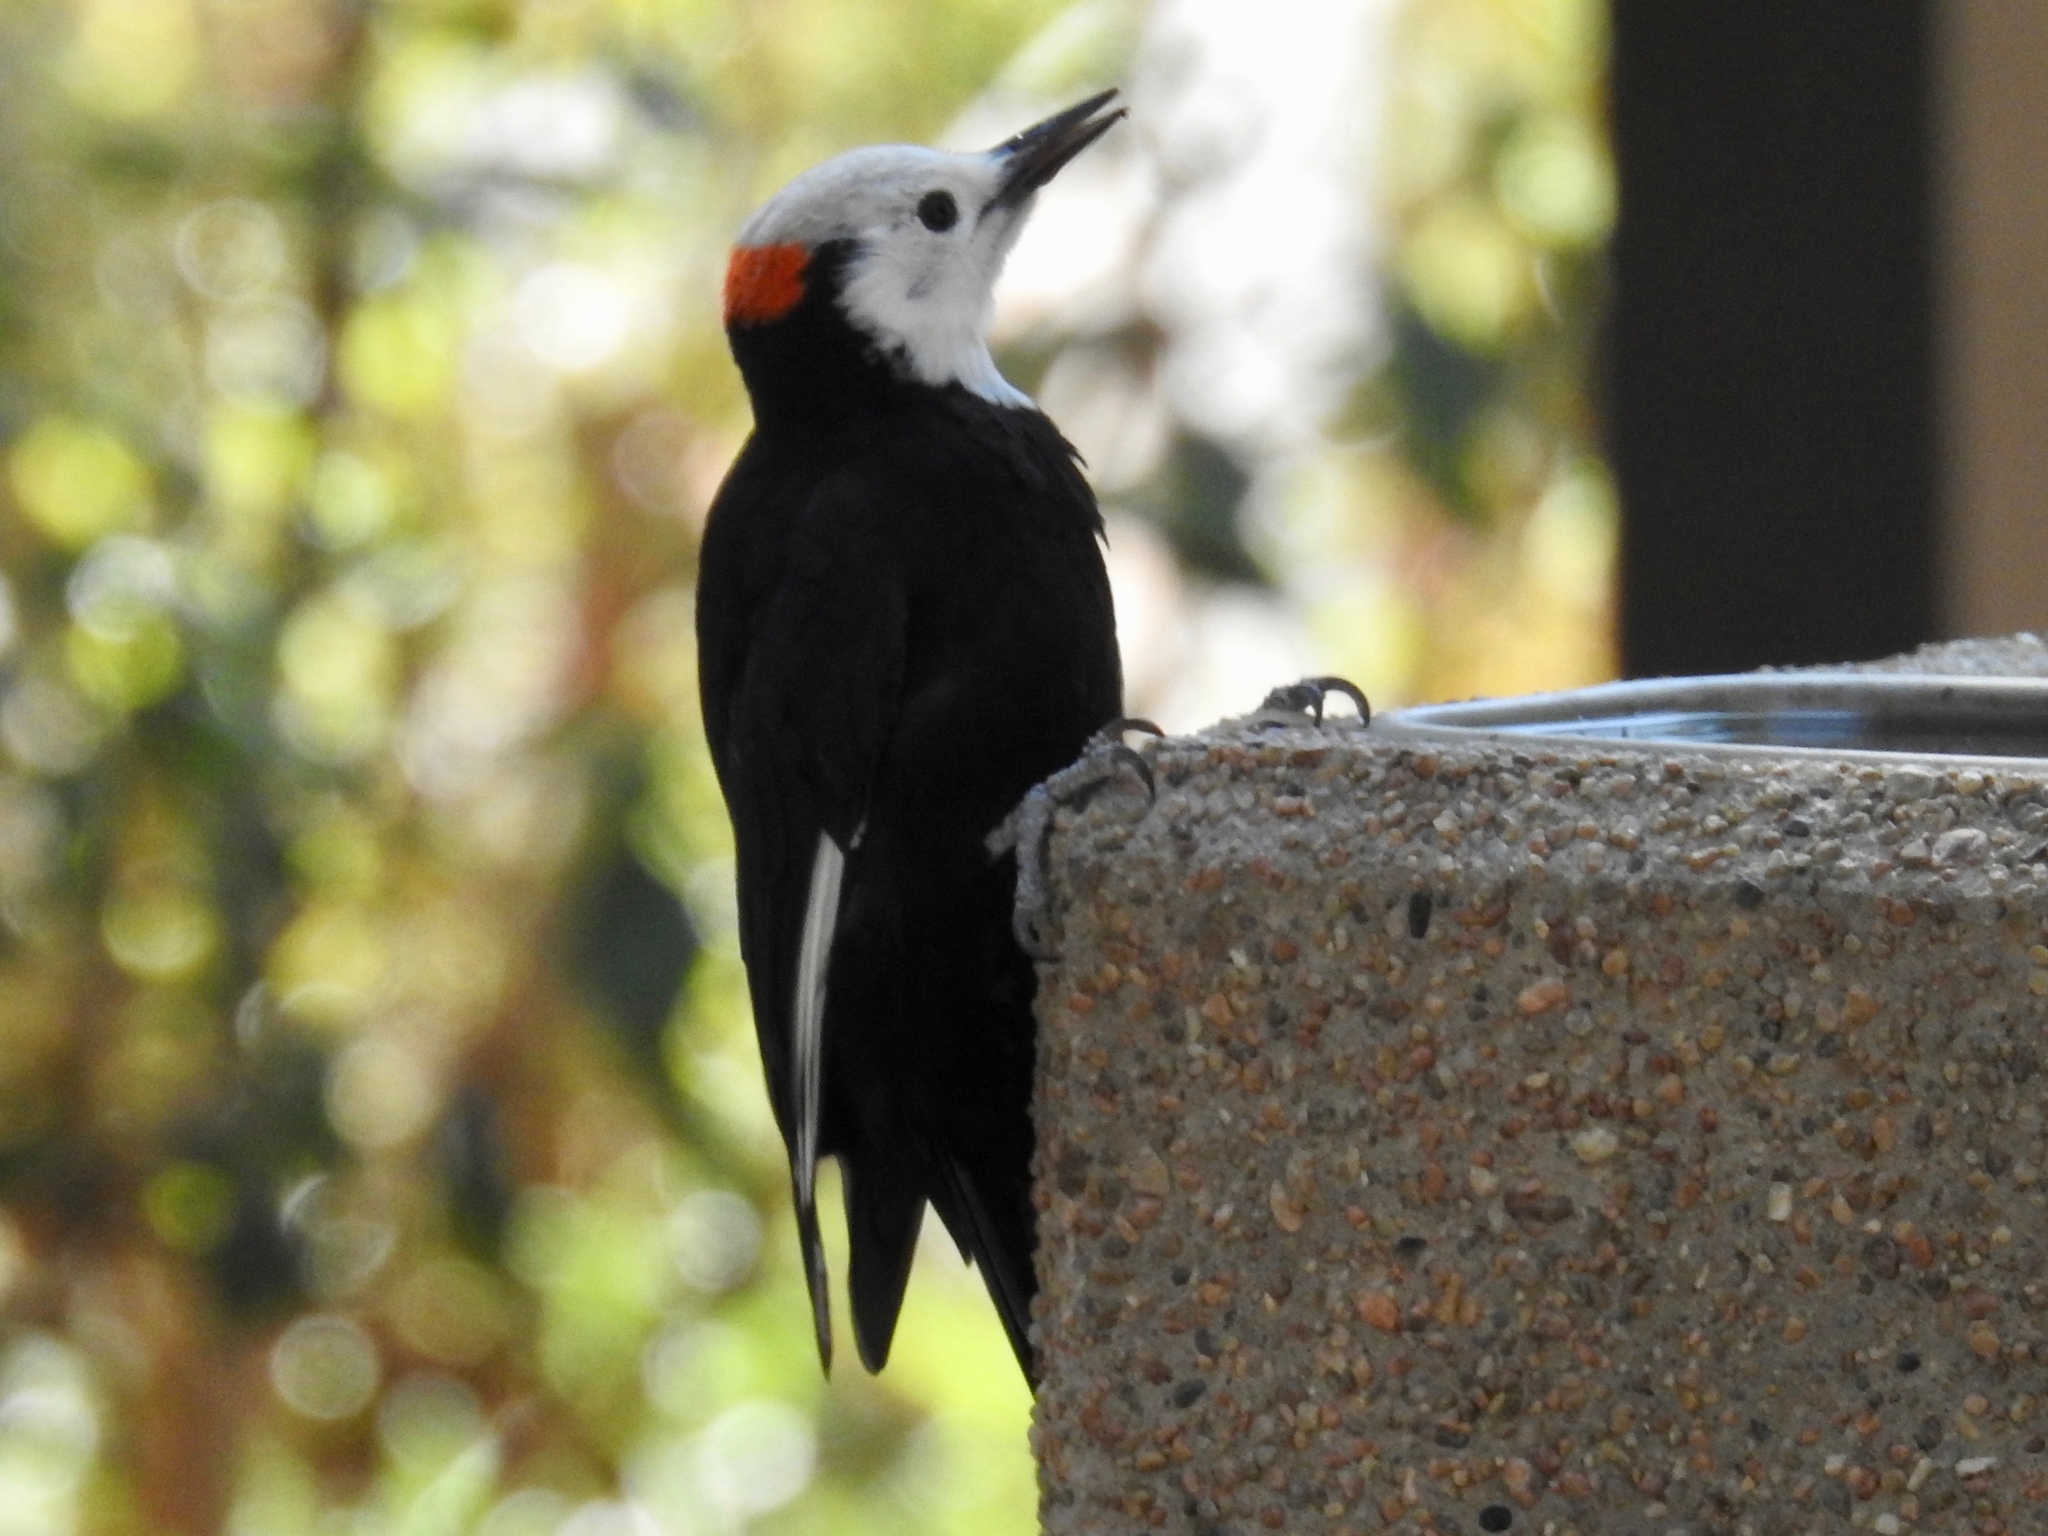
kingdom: Animalia
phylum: Chordata
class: Aves
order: Piciformes
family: Picidae
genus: Leuconotopicus
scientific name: Leuconotopicus albolarvatus
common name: White-headed woodpecker
